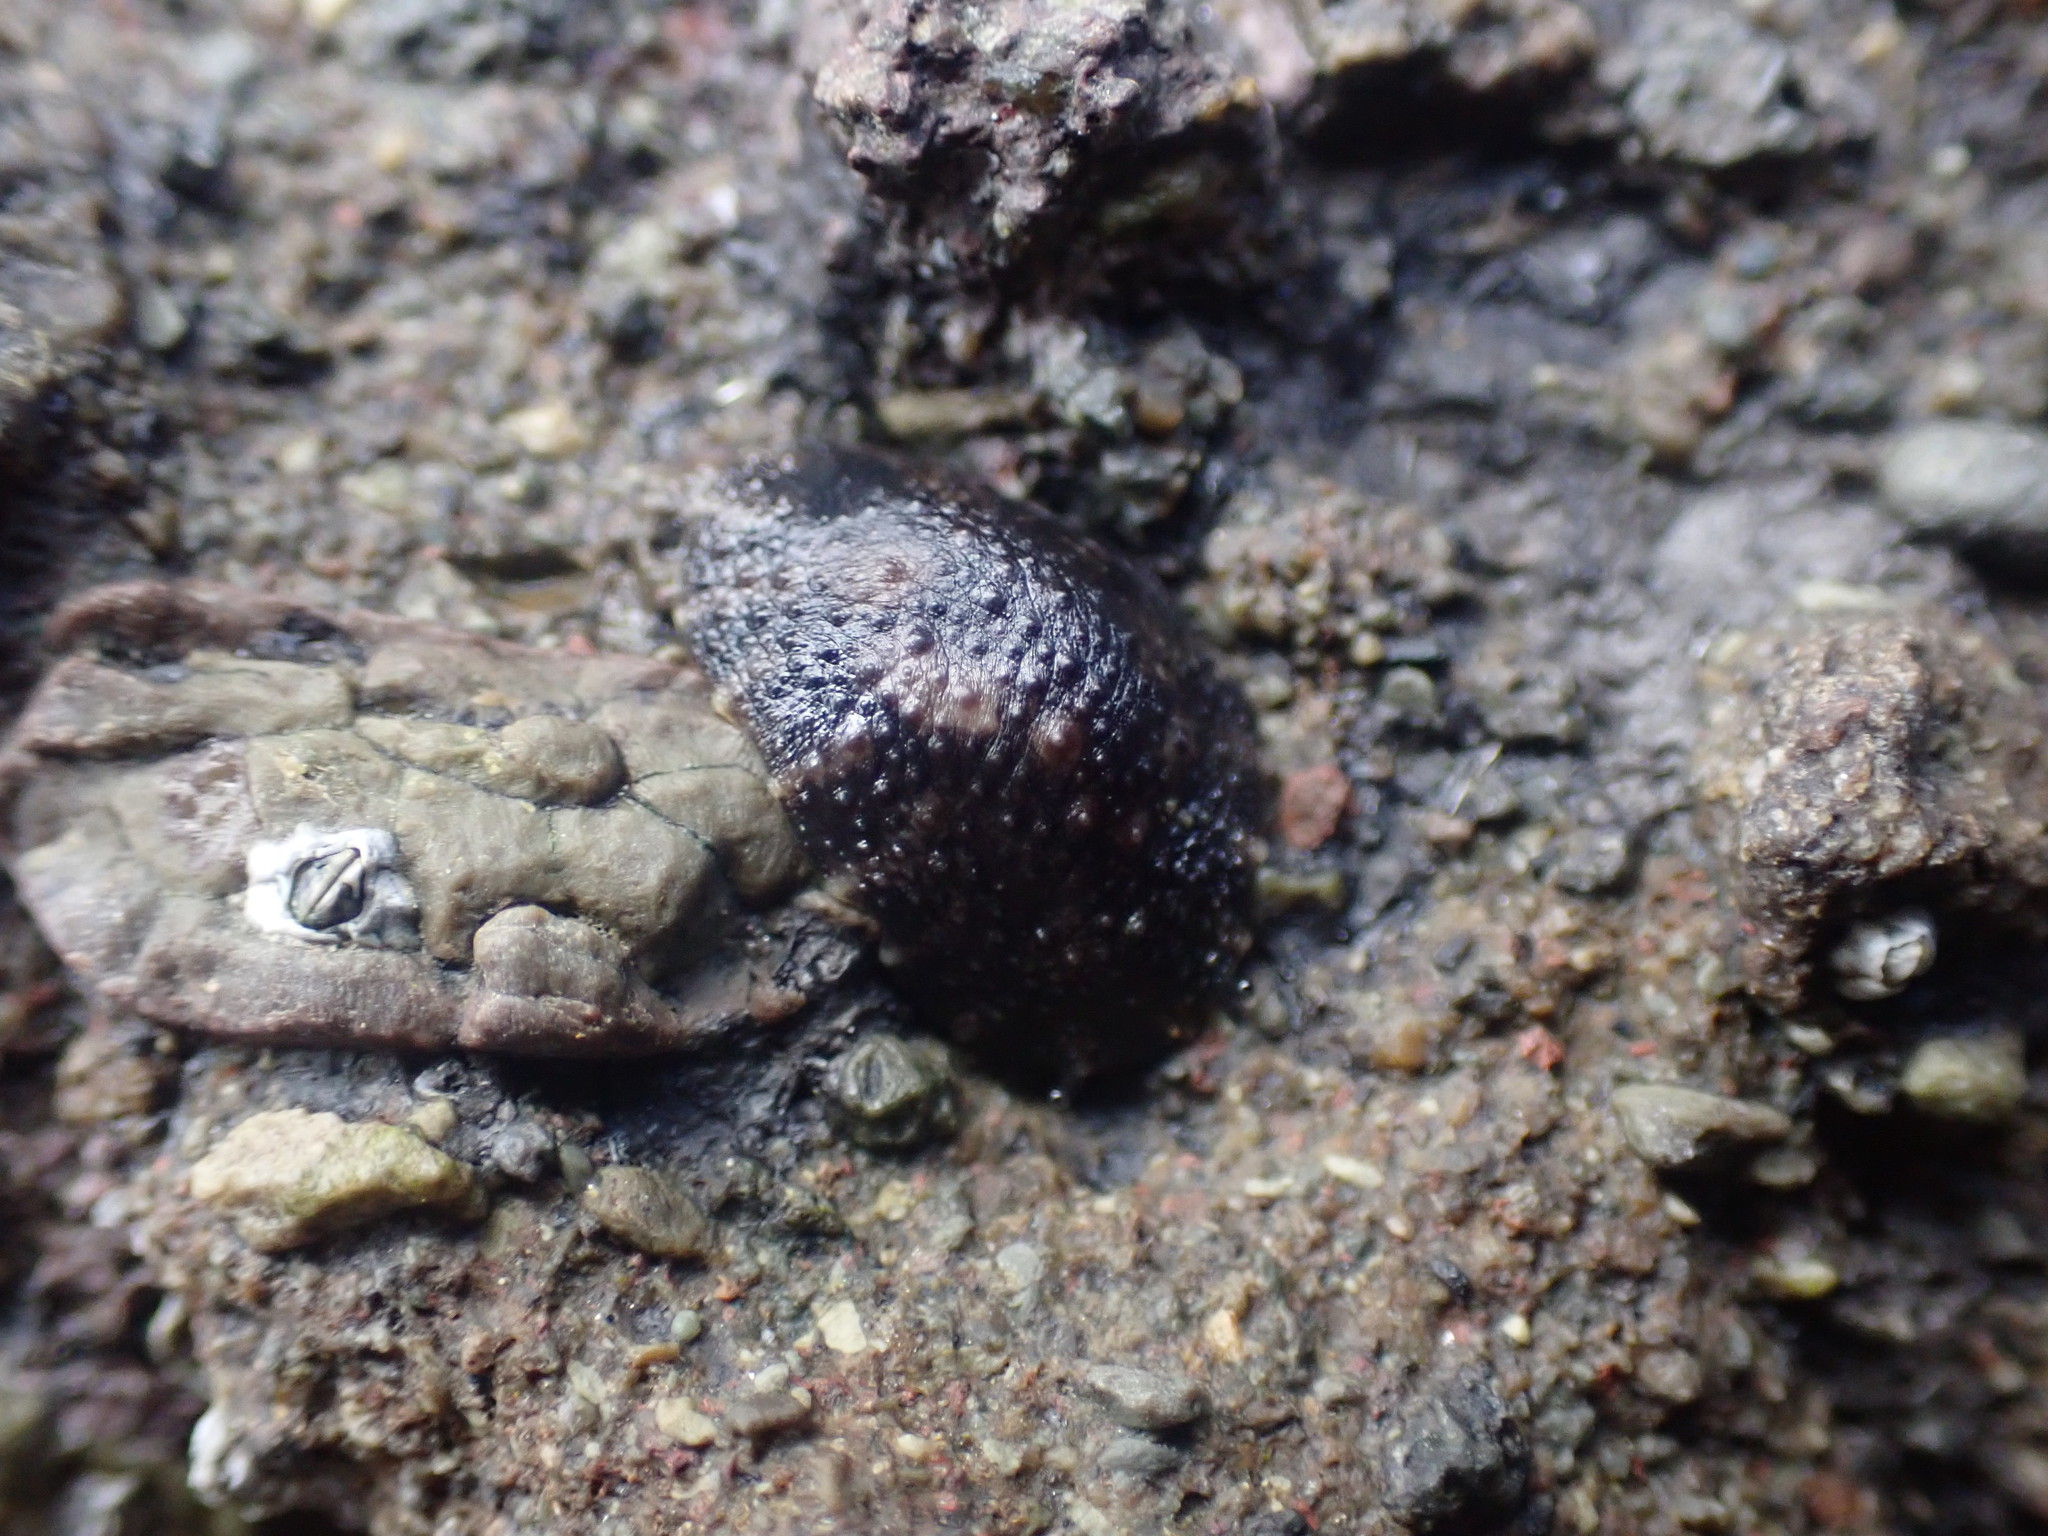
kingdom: Animalia
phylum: Mollusca
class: Gastropoda
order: Systellommatophora
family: Onchidiidae
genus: Onchidella
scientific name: Onchidella nigricans
